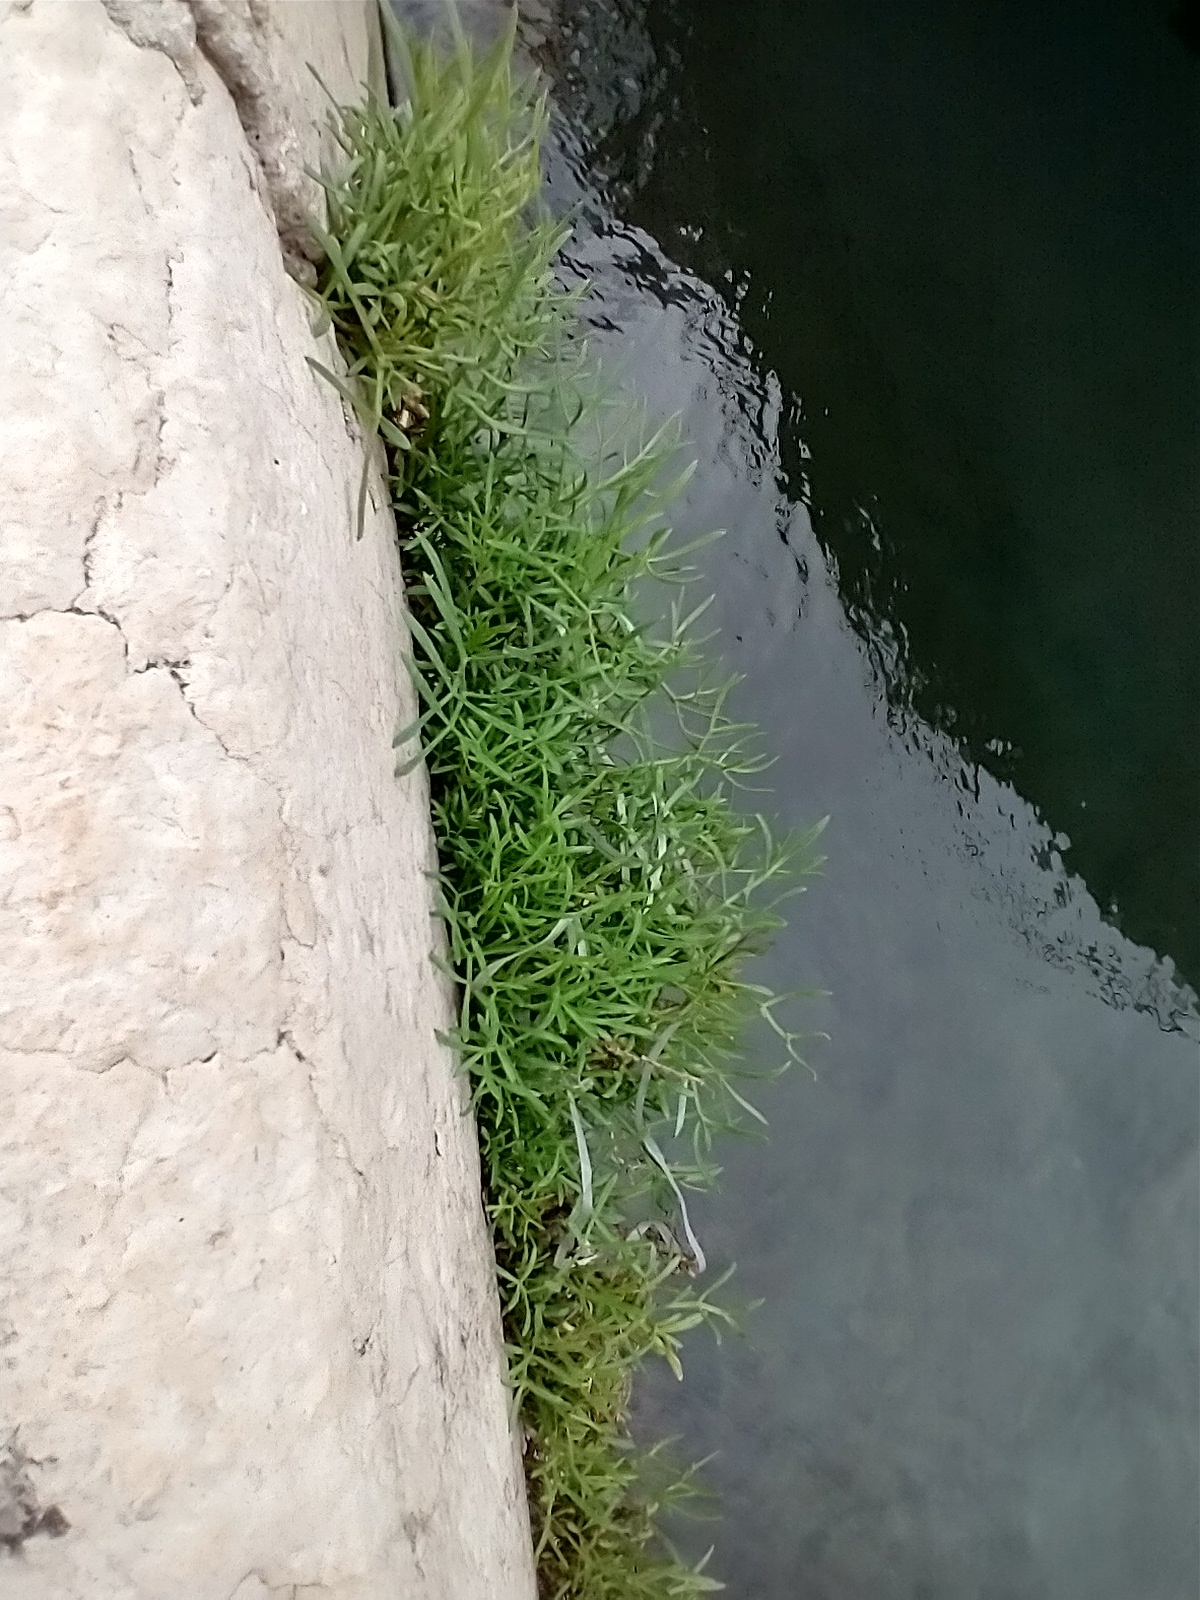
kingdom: Plantae
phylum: Tracheophyta
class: Magnoliopsida
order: Apiales
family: Apiaceae
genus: Crithmum
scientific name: Crithmum maritimum
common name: Rock samphire
